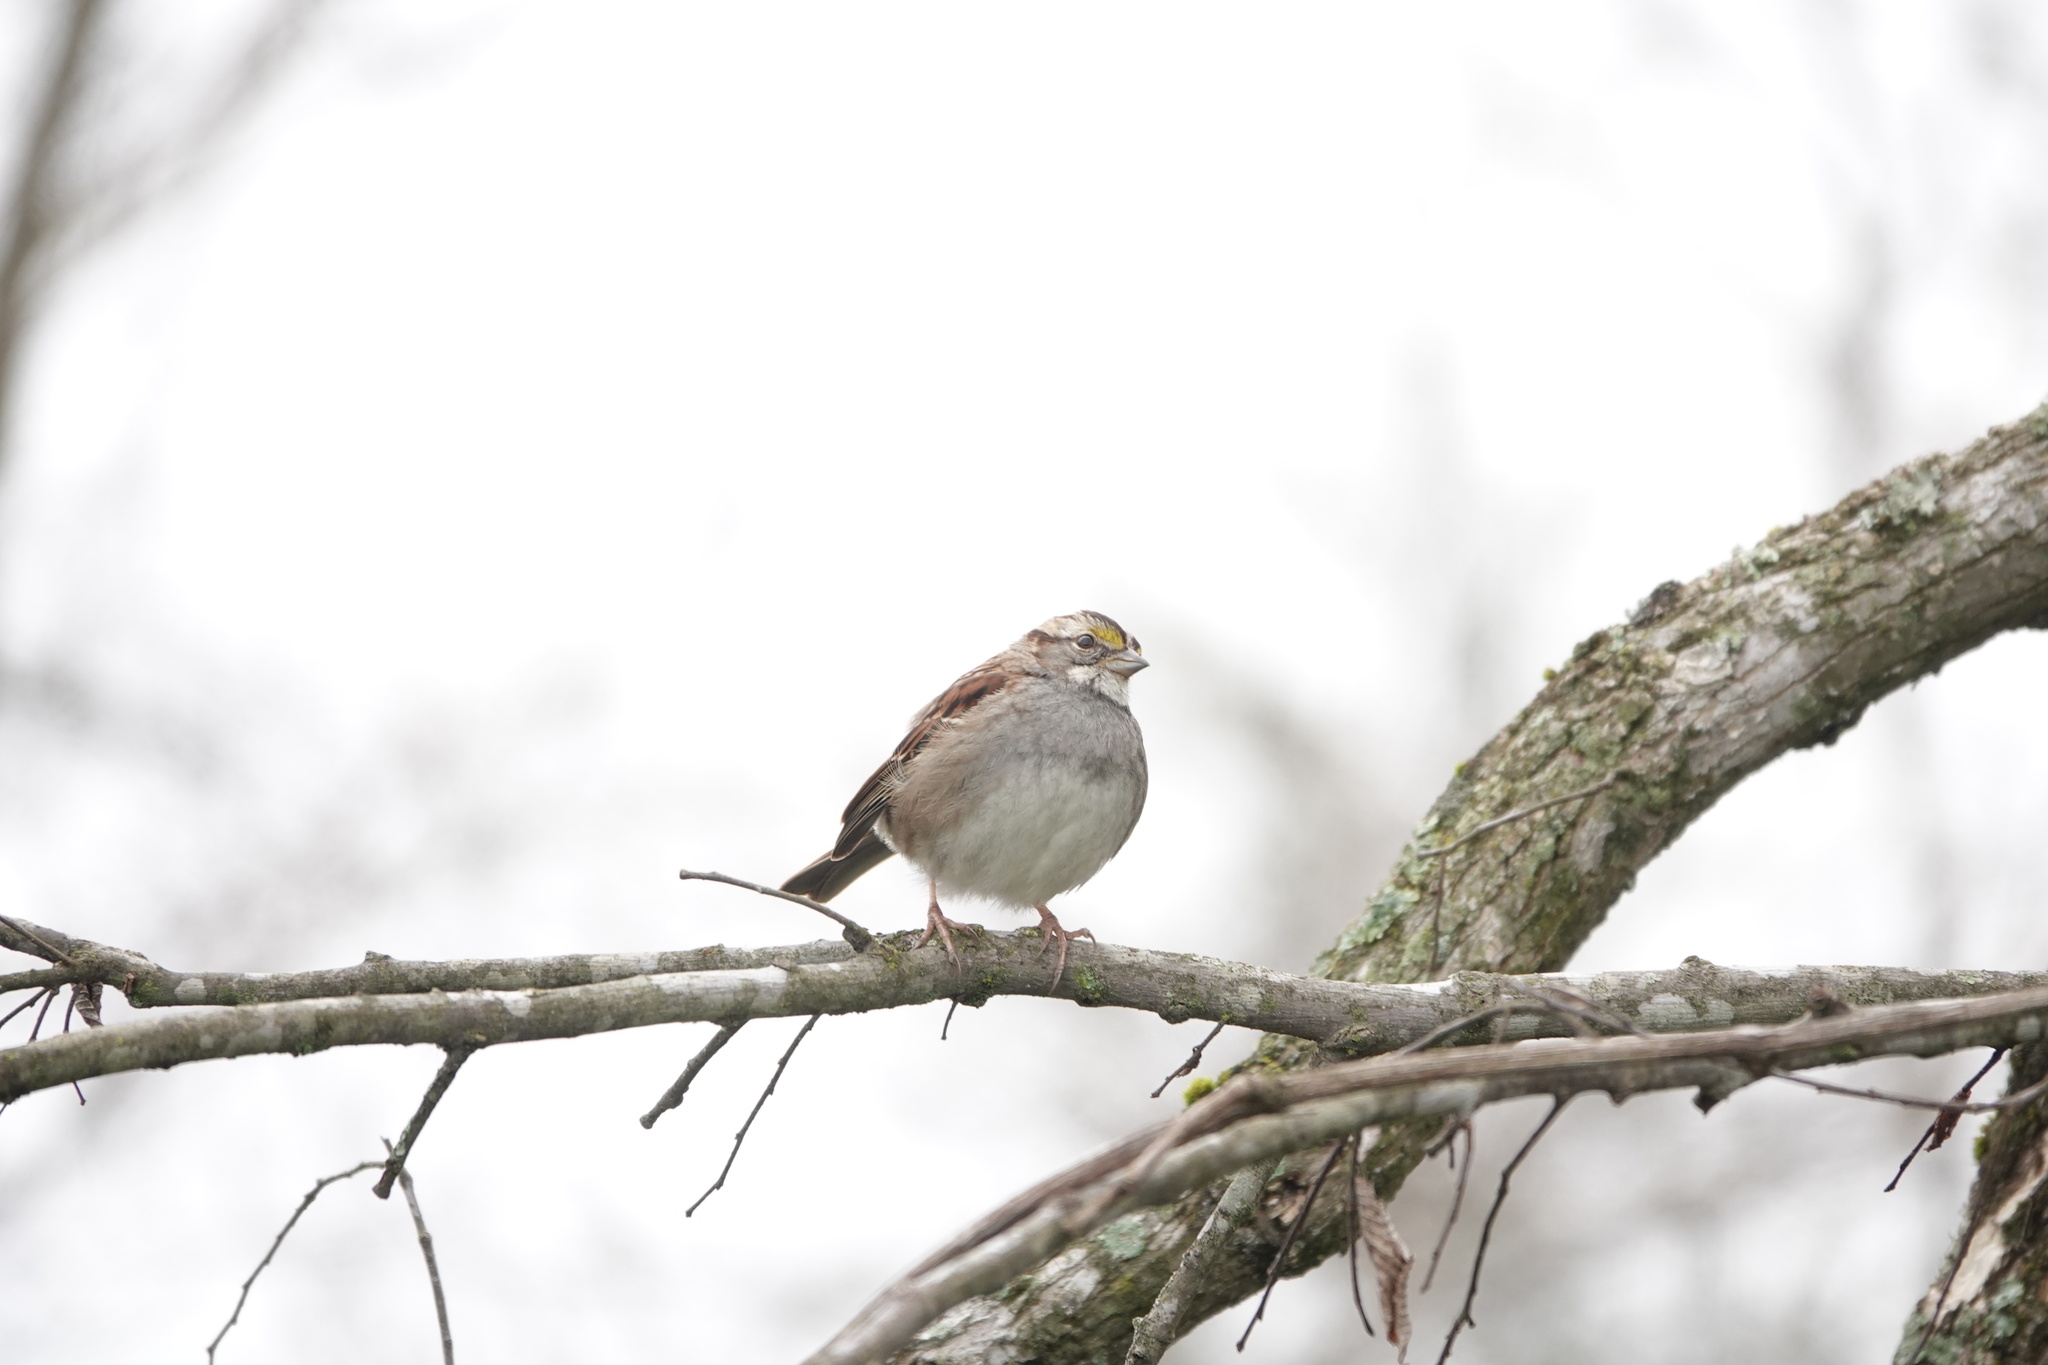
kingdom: Animalia
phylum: Chordata
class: Aves
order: Passeriformes
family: Passerellidae
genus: Zonotrichia
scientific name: Zonotrichia albicollis
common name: White-throated sparrow
